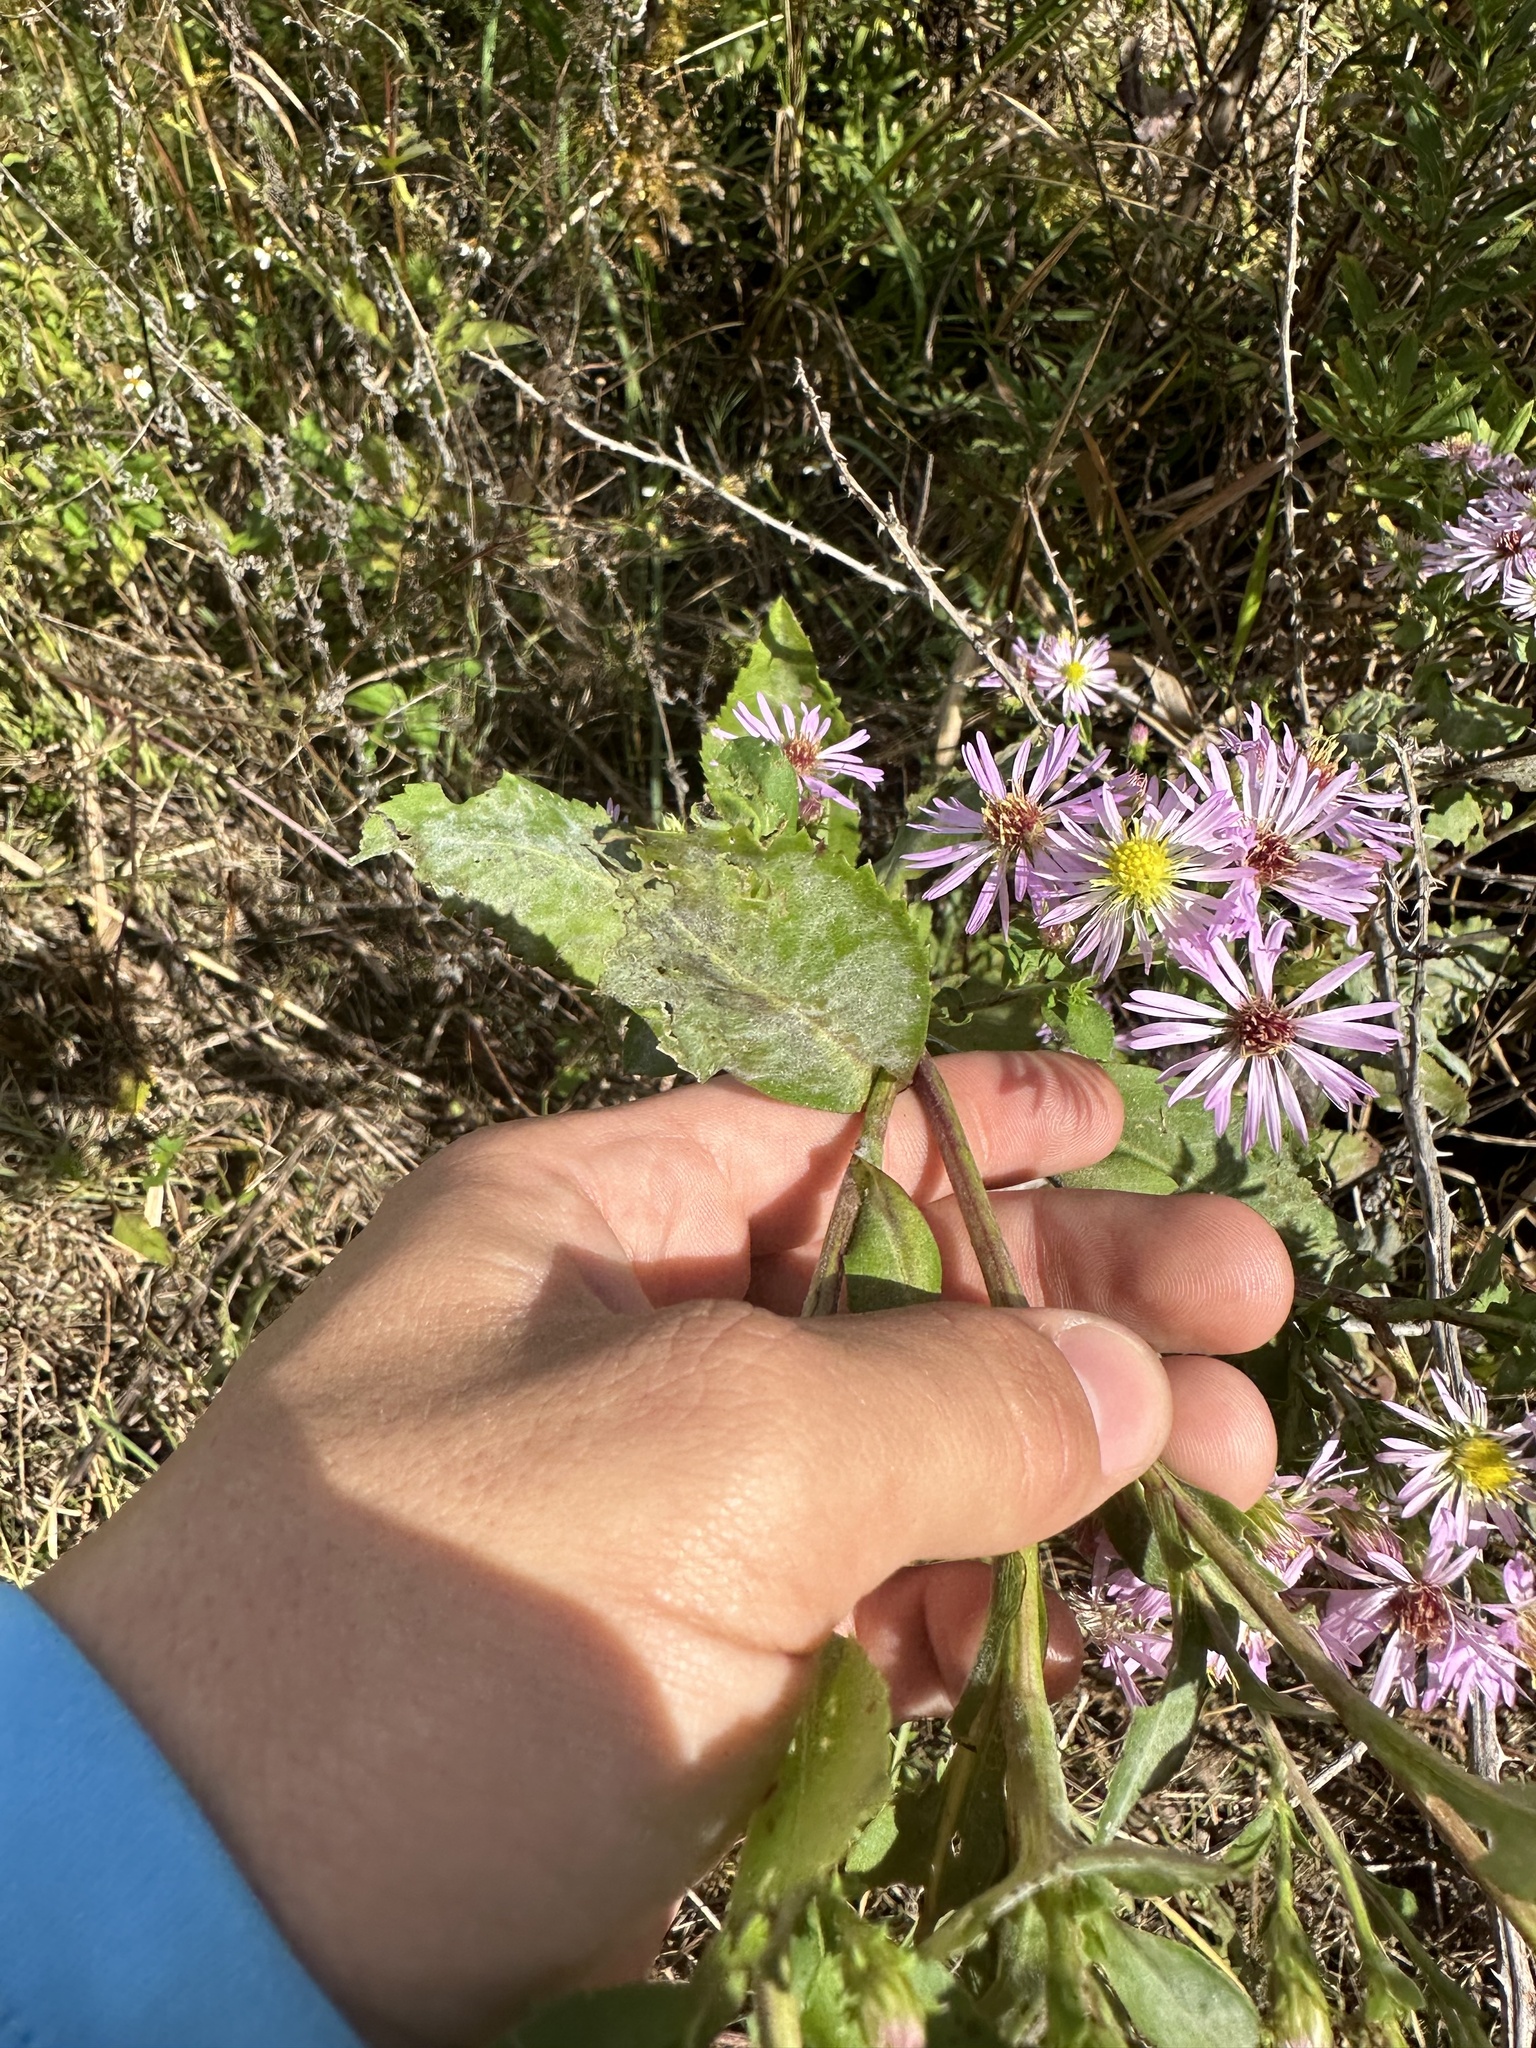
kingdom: Plantae
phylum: Tracheophyta
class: Magnoliopsida
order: Asterales
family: Asteraceae
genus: Symphyotrichum
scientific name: Symphyotrichum elliottii
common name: Southern swamp aster
